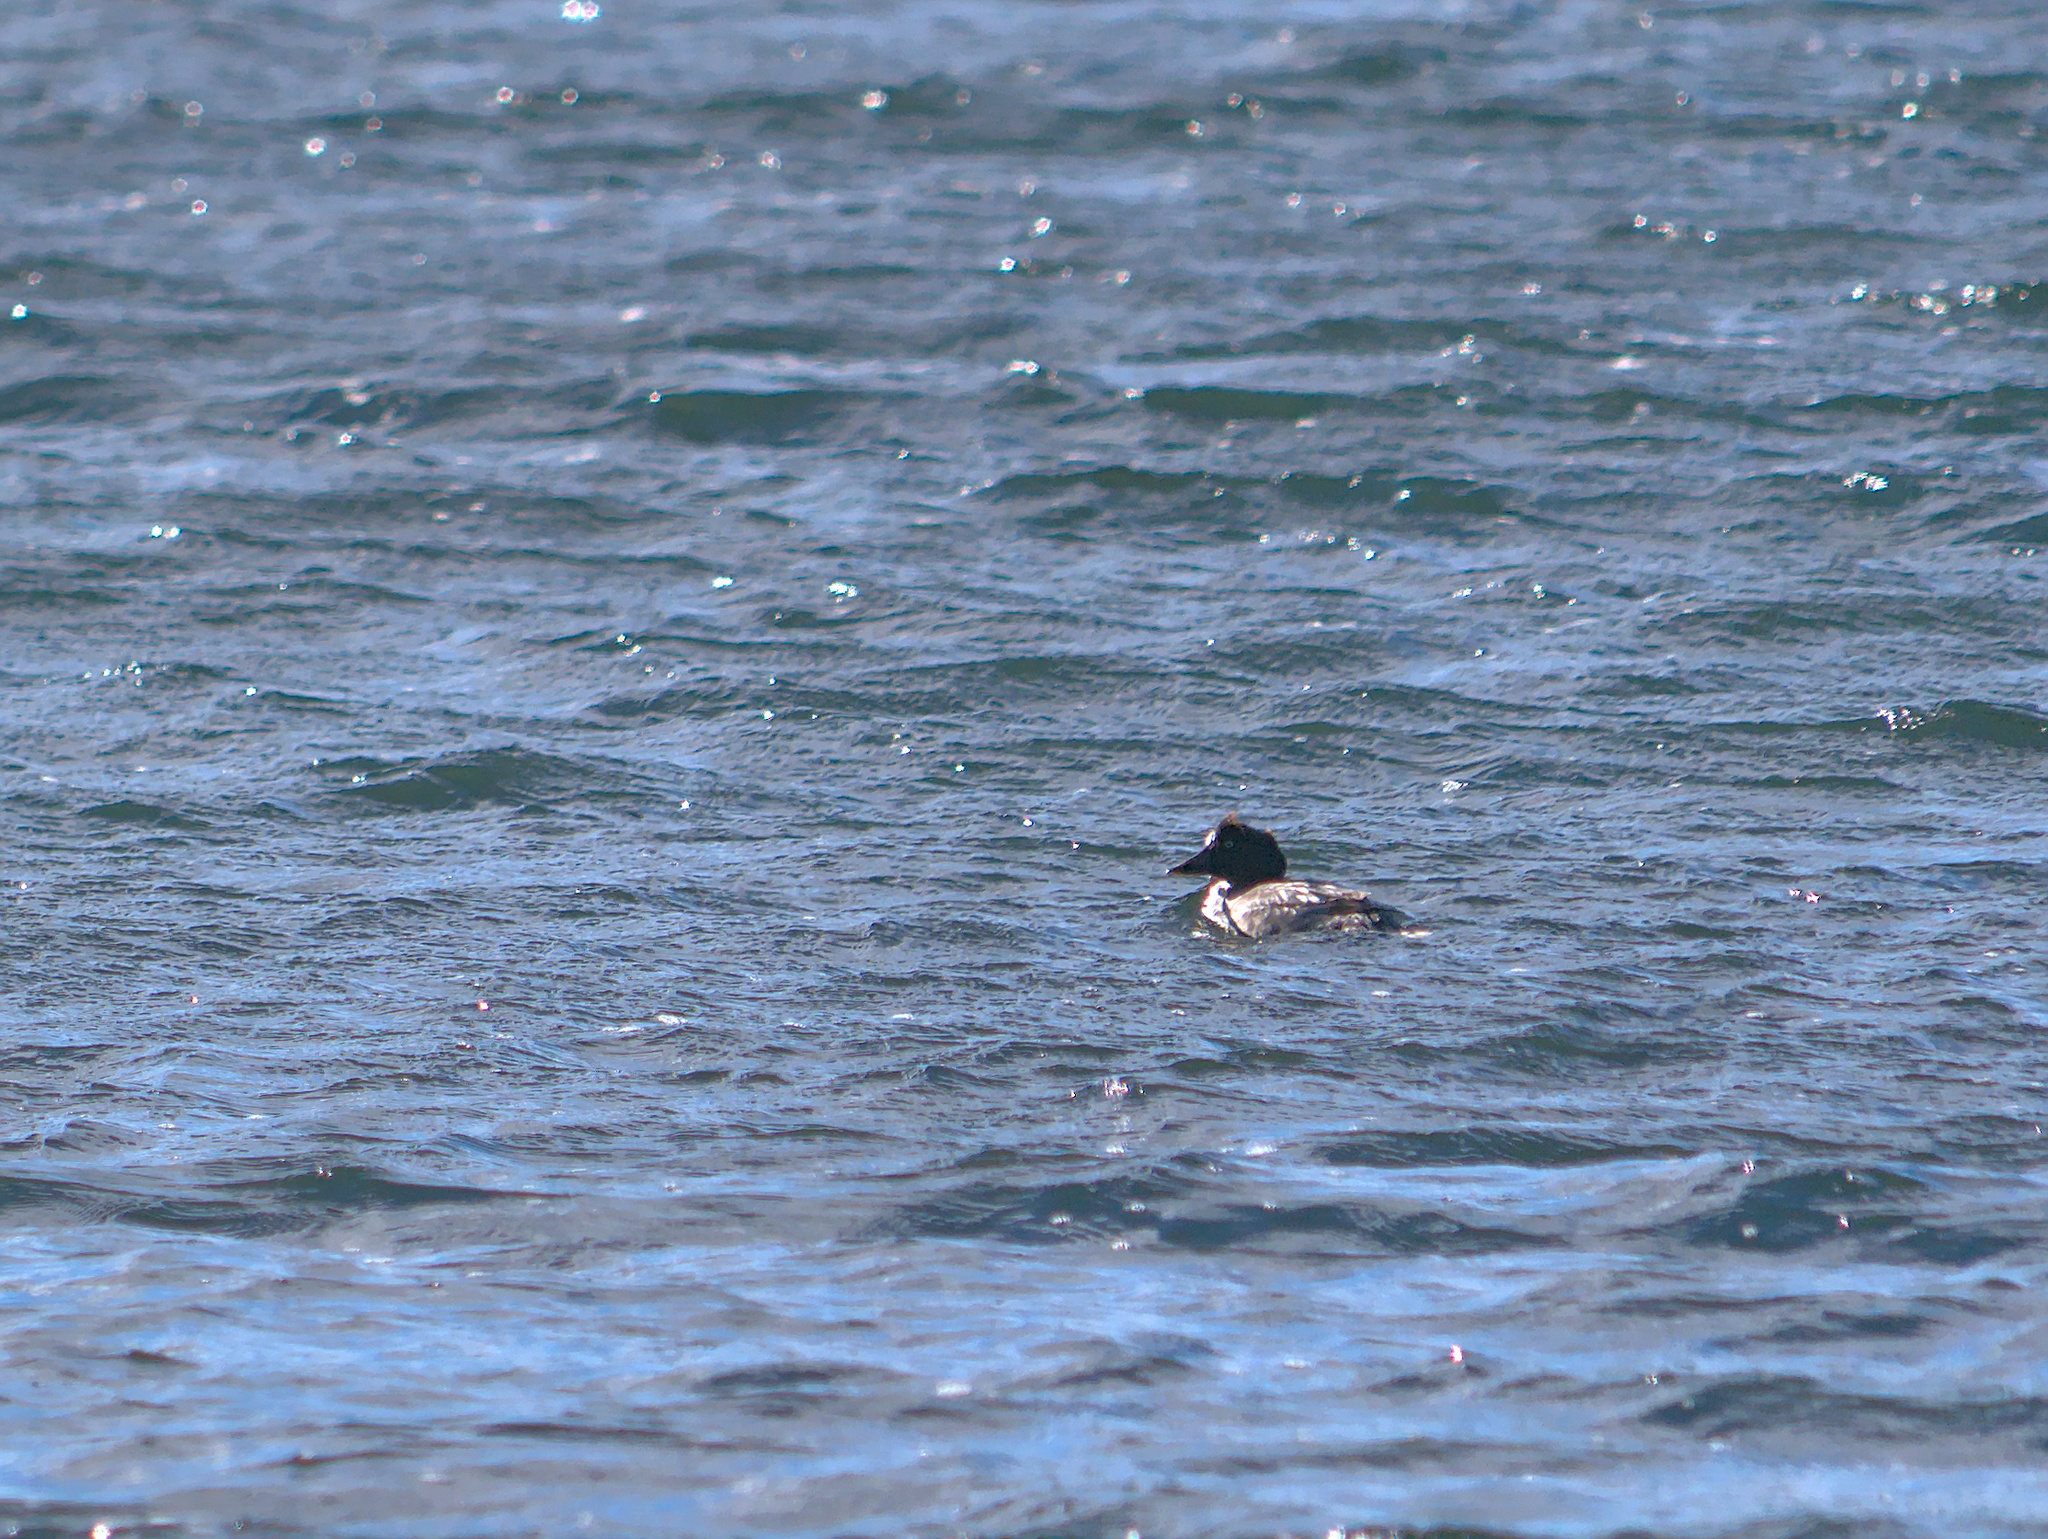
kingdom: Animalia
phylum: Chordata
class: Aves
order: Anseriformes
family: Anatidae
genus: Bucephala
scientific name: Bucephala clangula
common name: Common goldeneye
